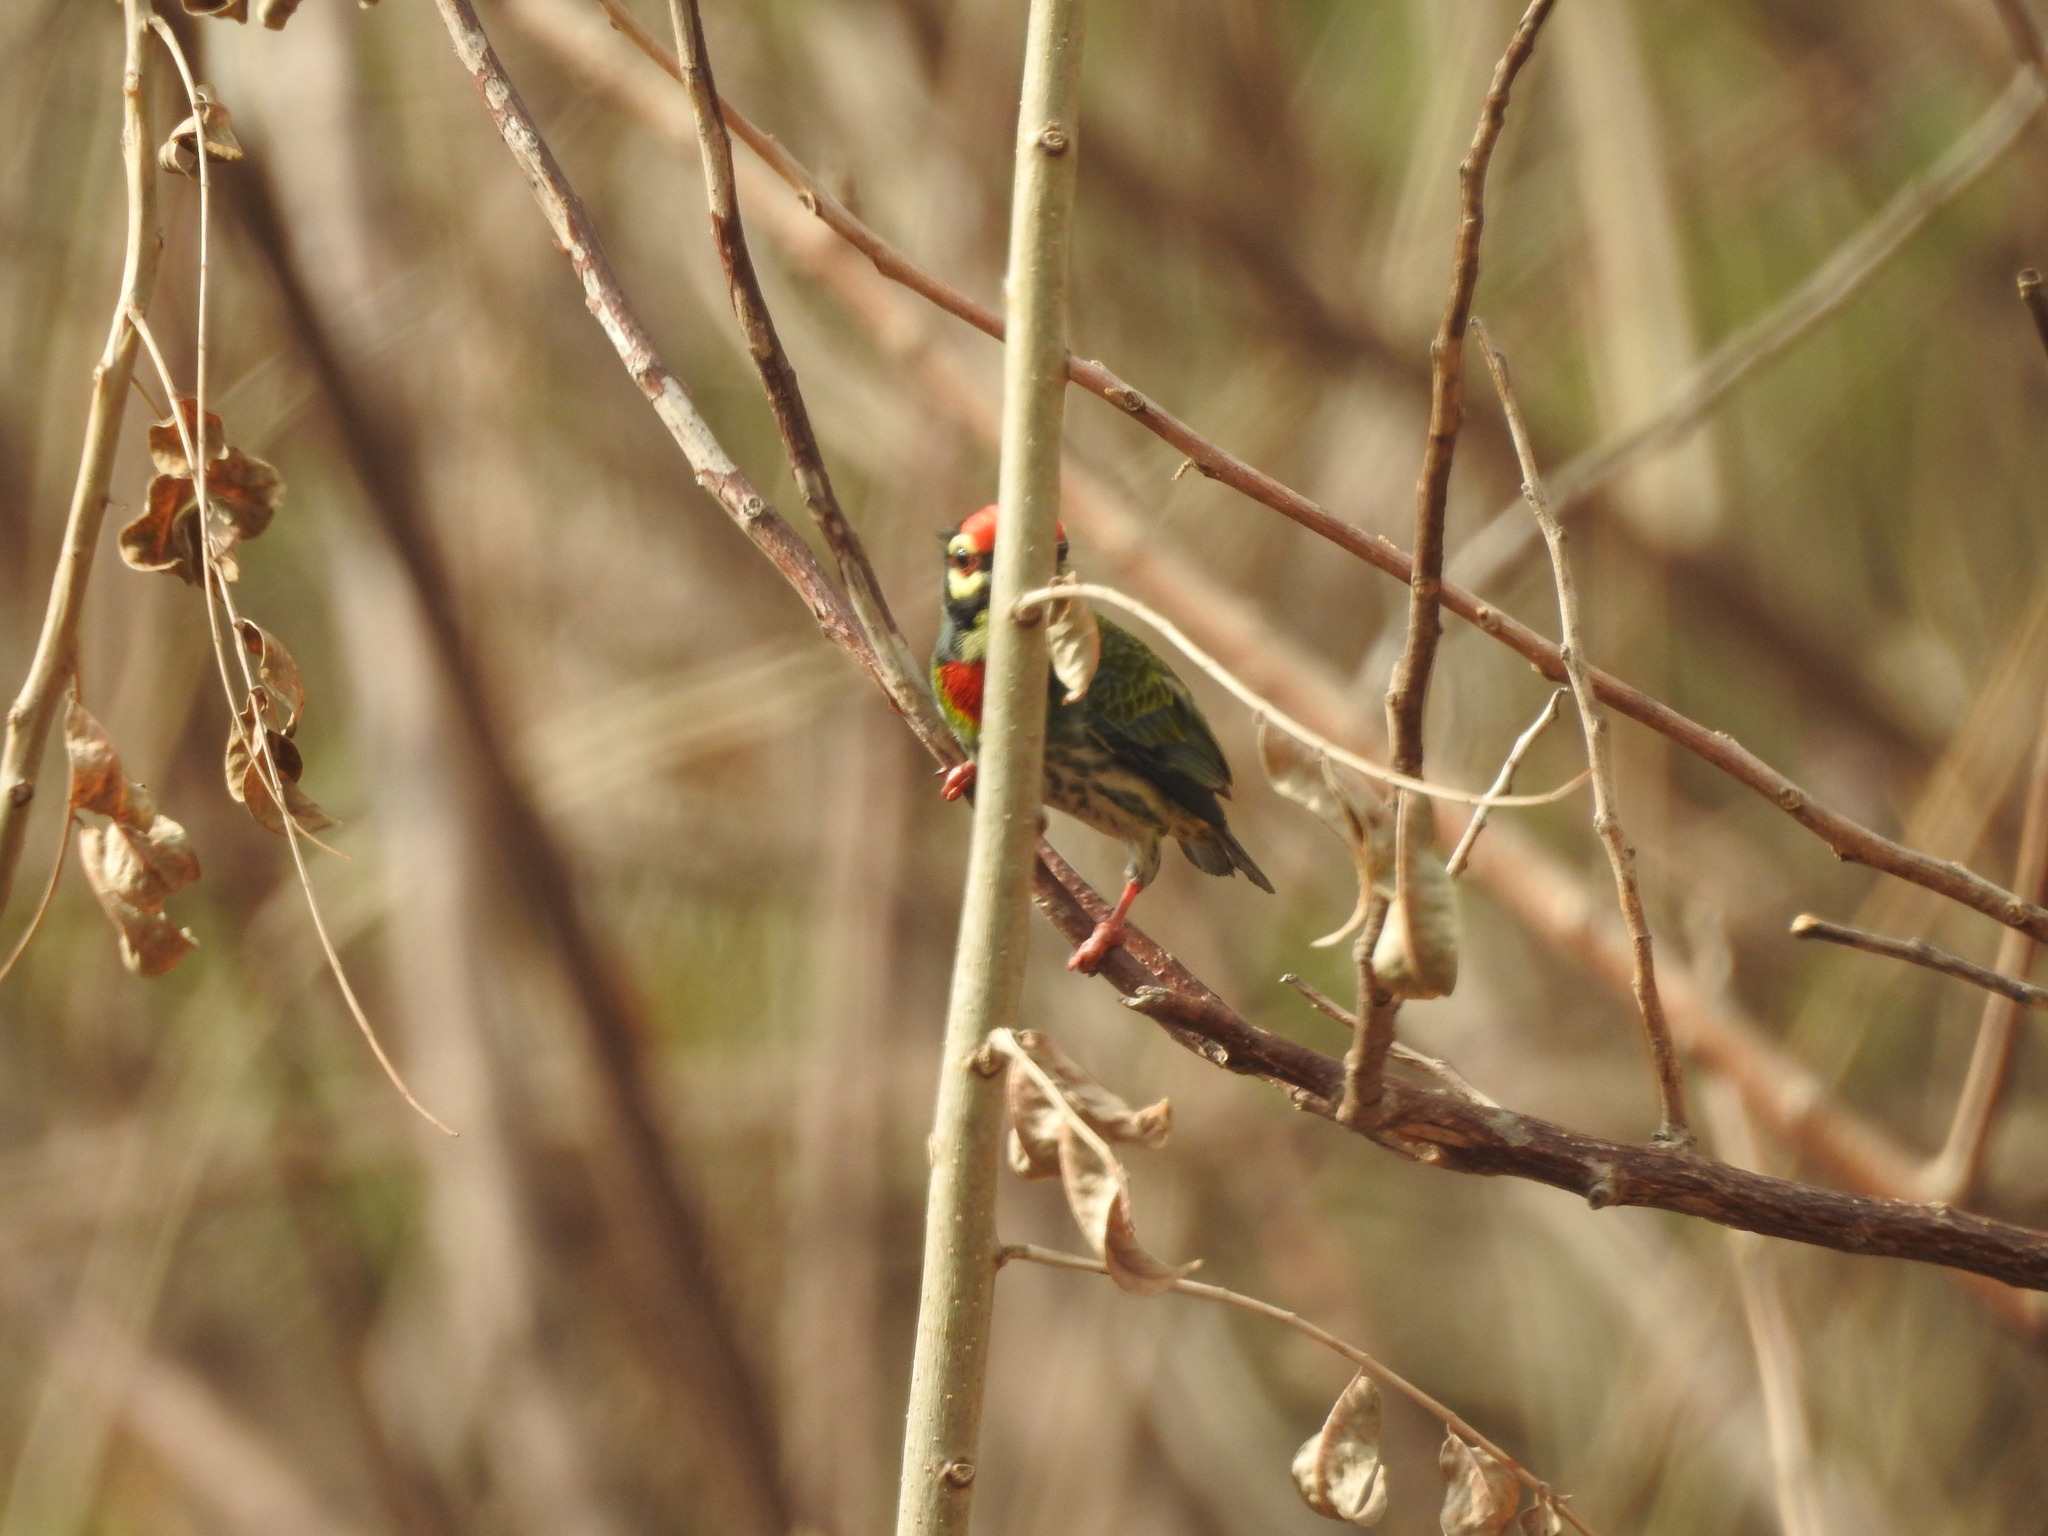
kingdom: Animalia
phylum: Chordata
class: Aves
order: Piciformes
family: Megalaimidae
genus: Psilopogon
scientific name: Psilopogon haemacephalus
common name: Coppersmith barbet
